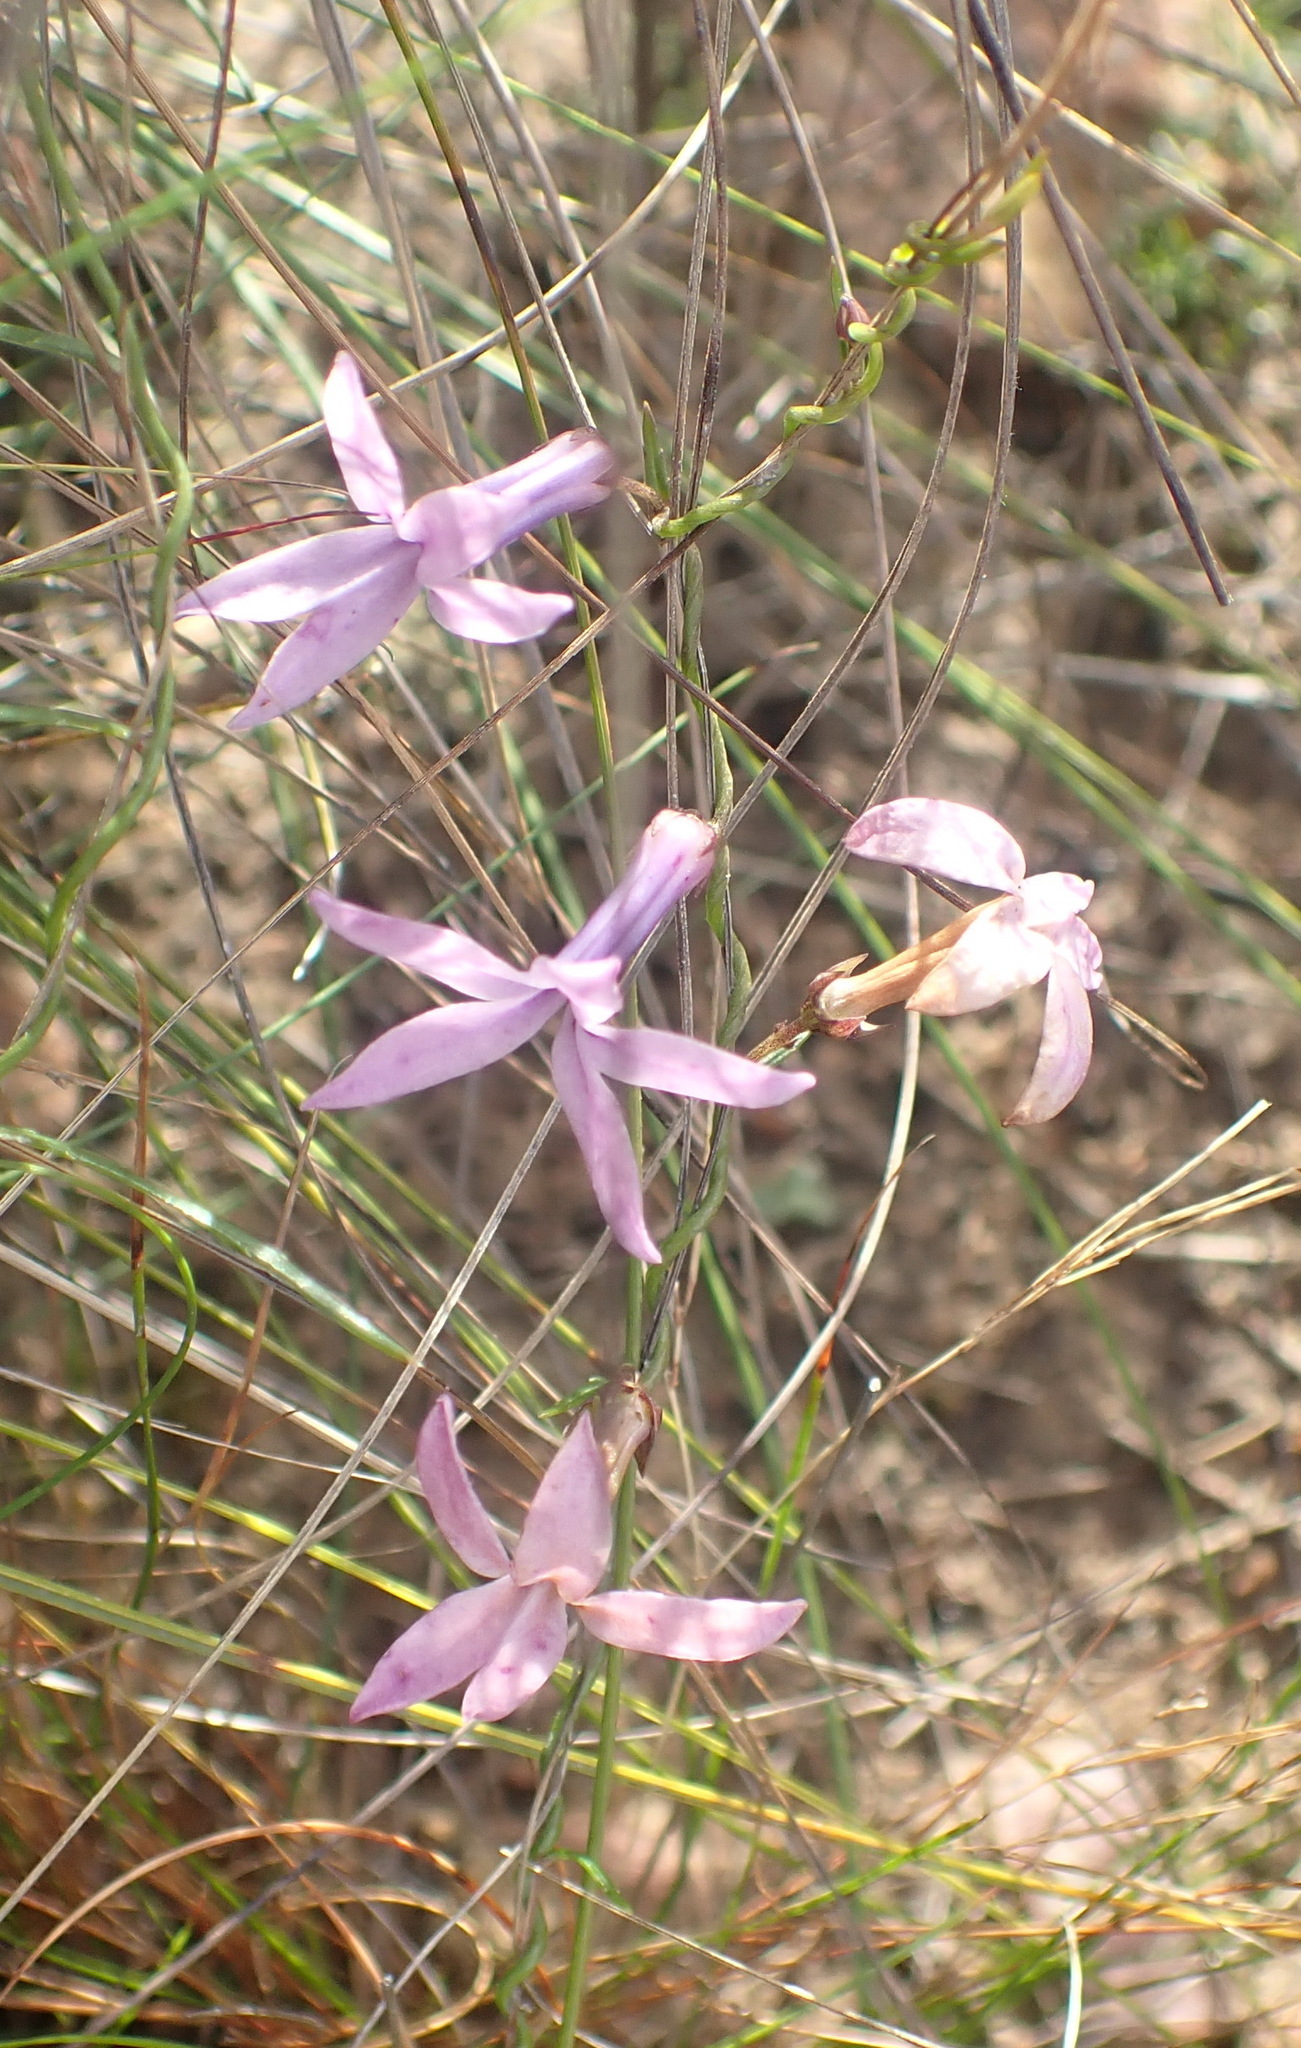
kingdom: Plantae
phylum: Tracheophyta
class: Magnoliopsida
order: Asterales
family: Campanulaceae
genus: Cyphia
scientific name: Cyphia volubilis
